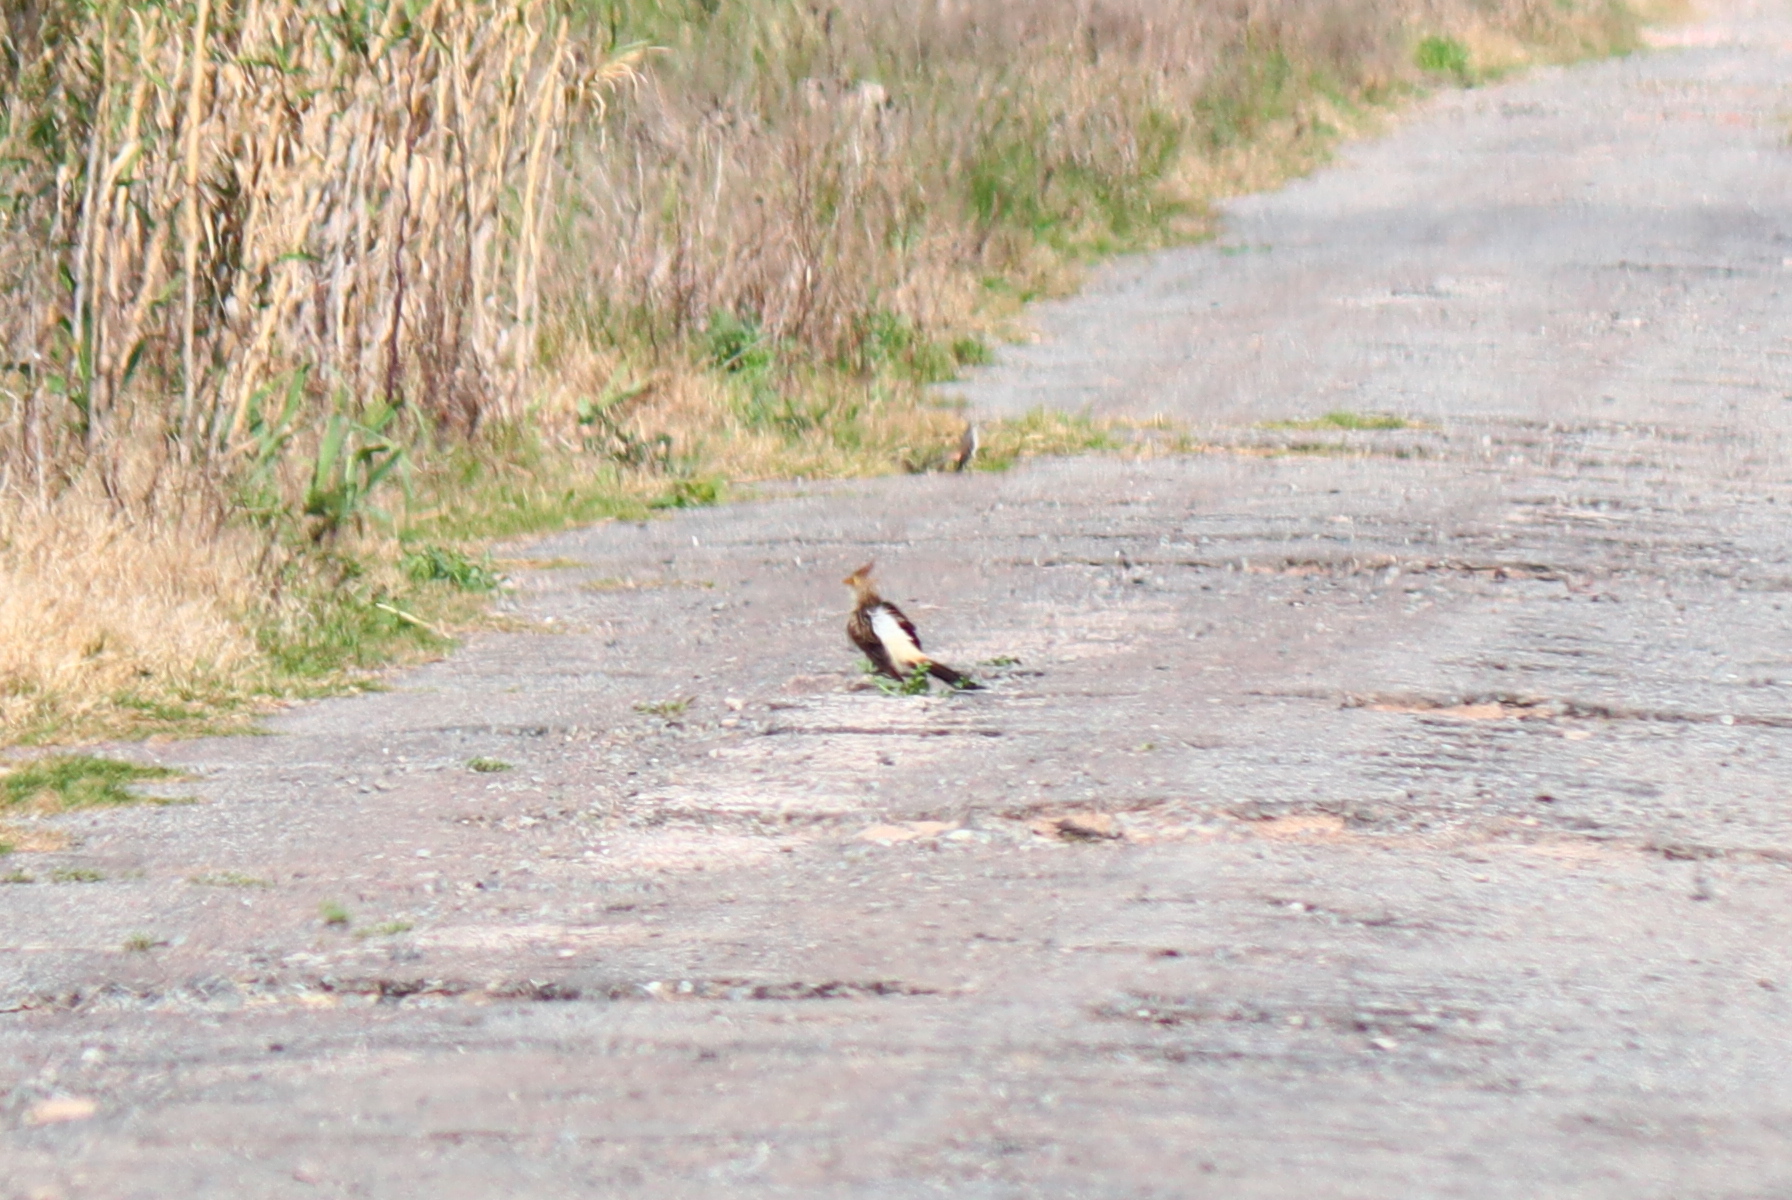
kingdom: Animalia
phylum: Chordata
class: Aves
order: Cuculiformes
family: Cuculidae
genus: Guira
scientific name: Guira guira
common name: Guira cuckoo
